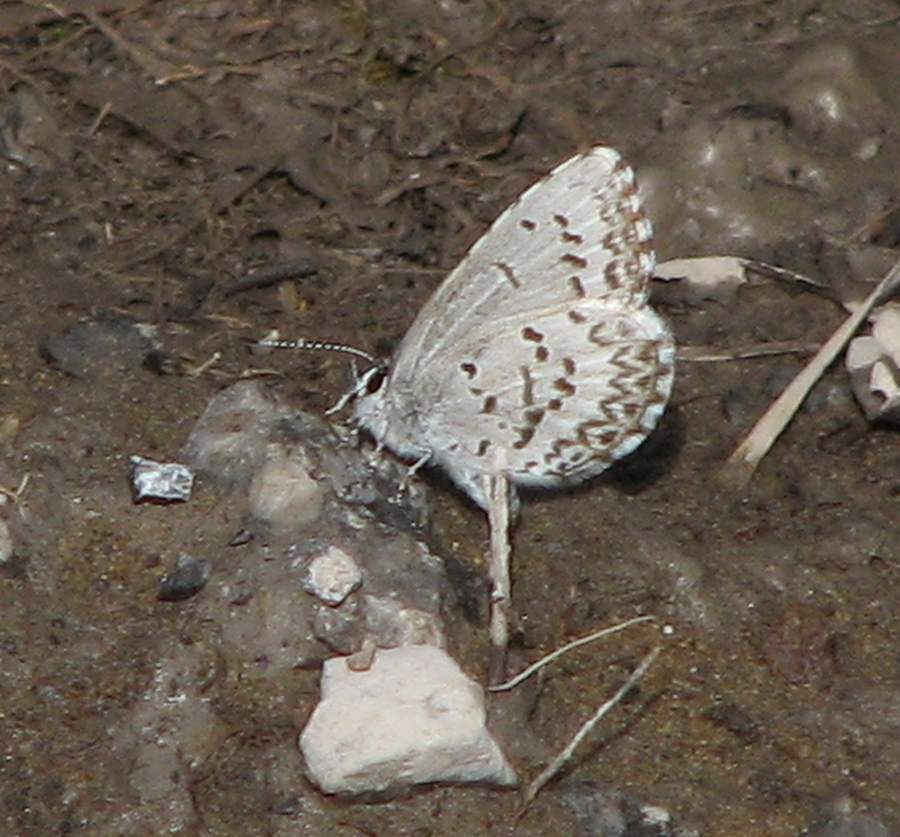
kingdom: Animalia
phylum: Arthropoda
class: Insecta
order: Lepidoptera
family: Lycaenidae
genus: Celastrina
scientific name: Celastrina lucia
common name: Lucia azure
